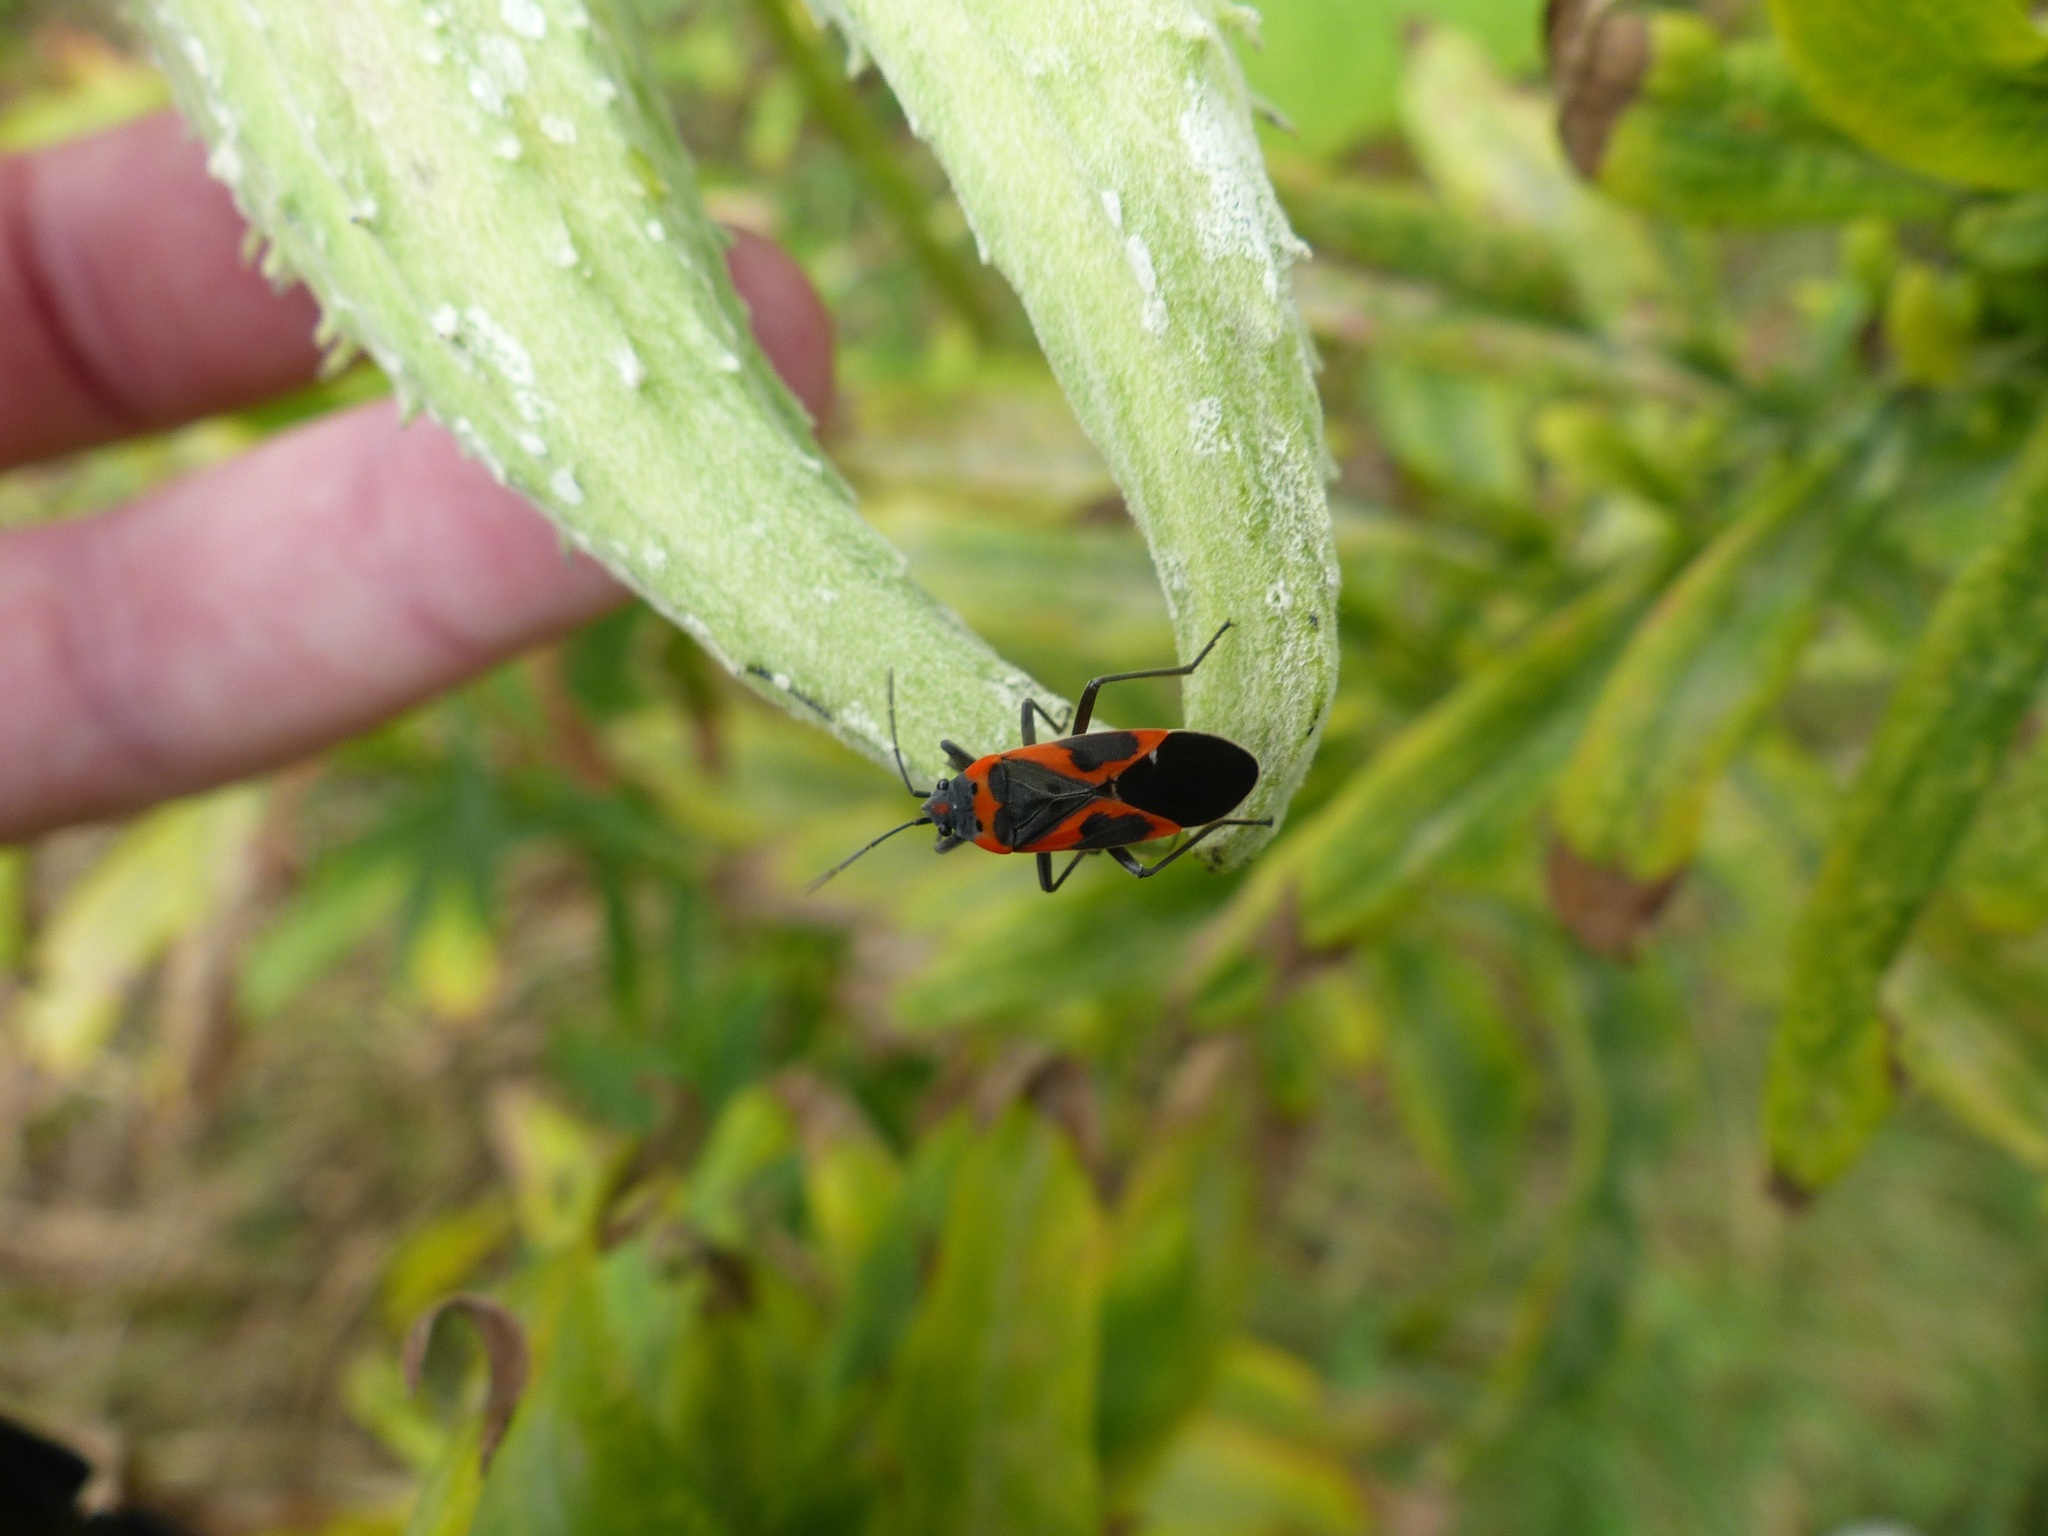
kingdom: Animalia
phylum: Arthropoda
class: Insecta
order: Hemiptera
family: Lygaeidae
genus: Lygaeus
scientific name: Lygaeus kalmii
